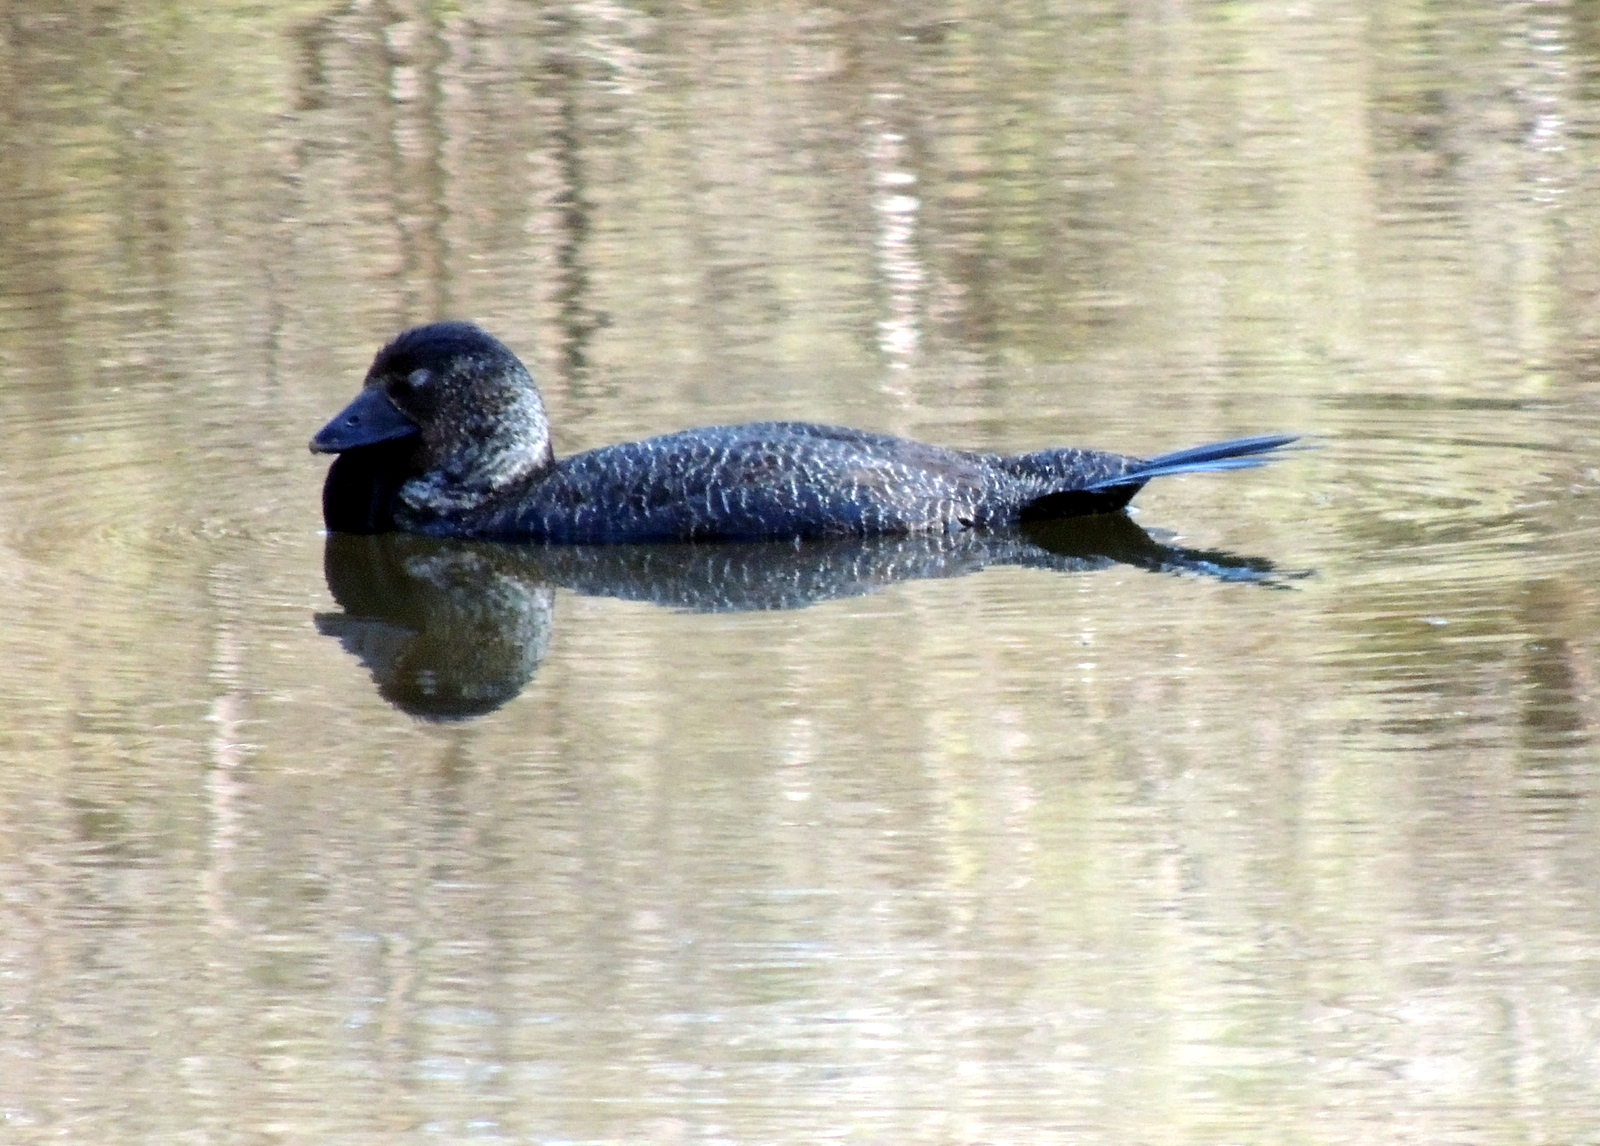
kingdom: Animalia
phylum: Chordata
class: Aves
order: Anseriformes
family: Anatidae
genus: Biziura
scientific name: Biziura lobata
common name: Musk duck
